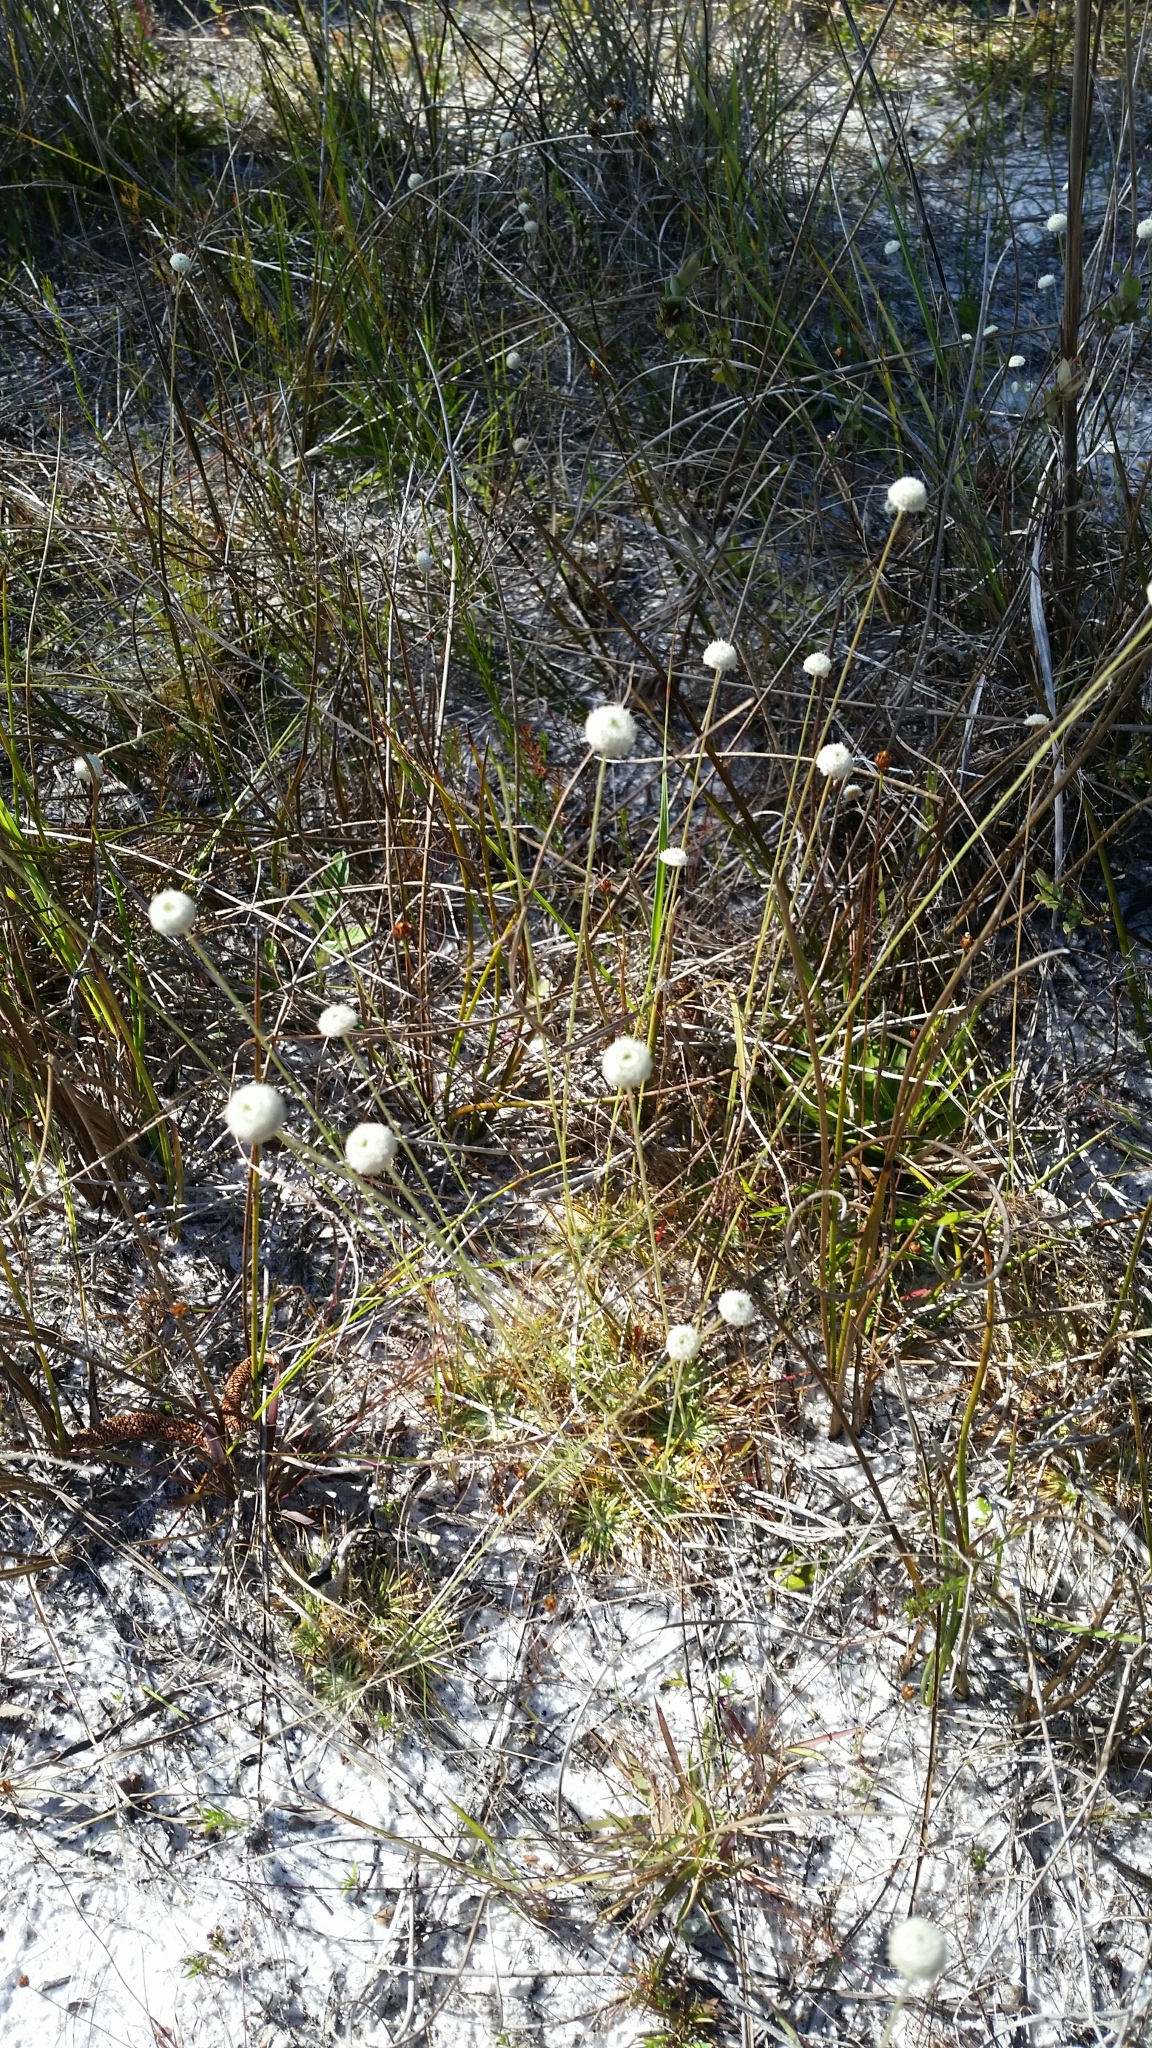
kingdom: Plantae
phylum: Tracheophyta
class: Liliopsida
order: Poales
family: Eriocaulaceae
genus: Syngonanthus
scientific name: Syngonanthus flavidulus
